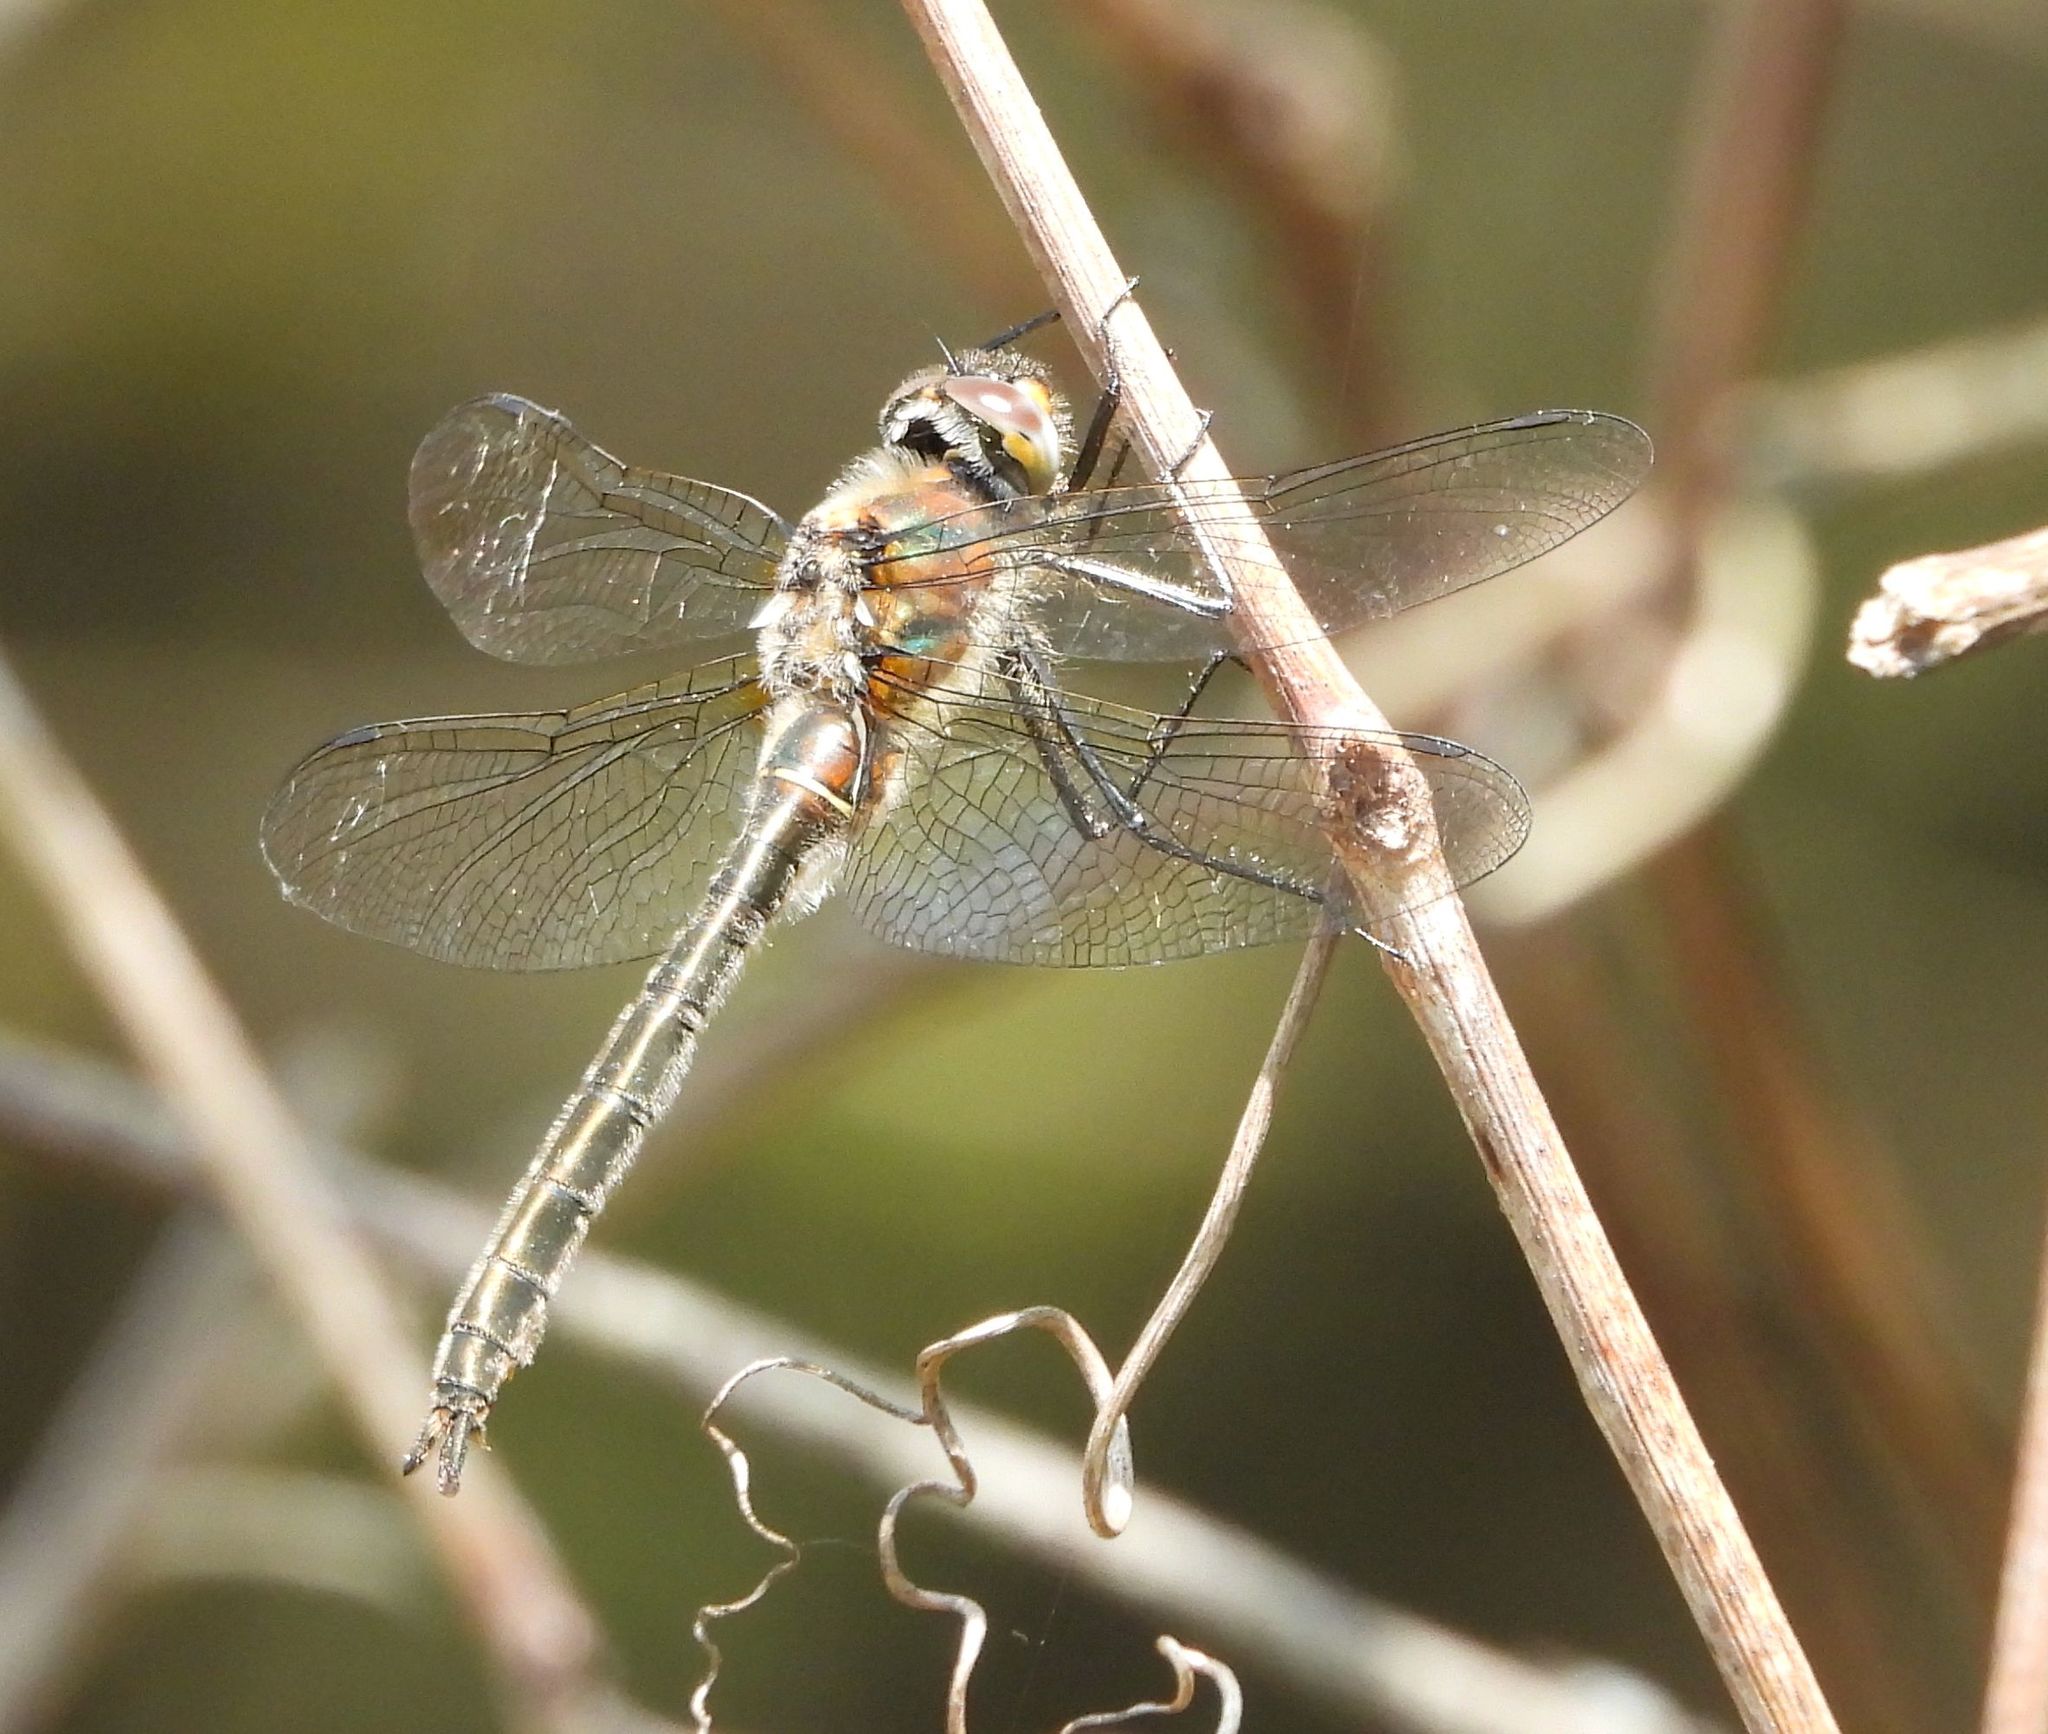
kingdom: Animalia
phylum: Arthropoda
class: Insecta
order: Odonata
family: Corduliidae
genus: Cordulia
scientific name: Cordulia shurtleffii
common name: American emerald
